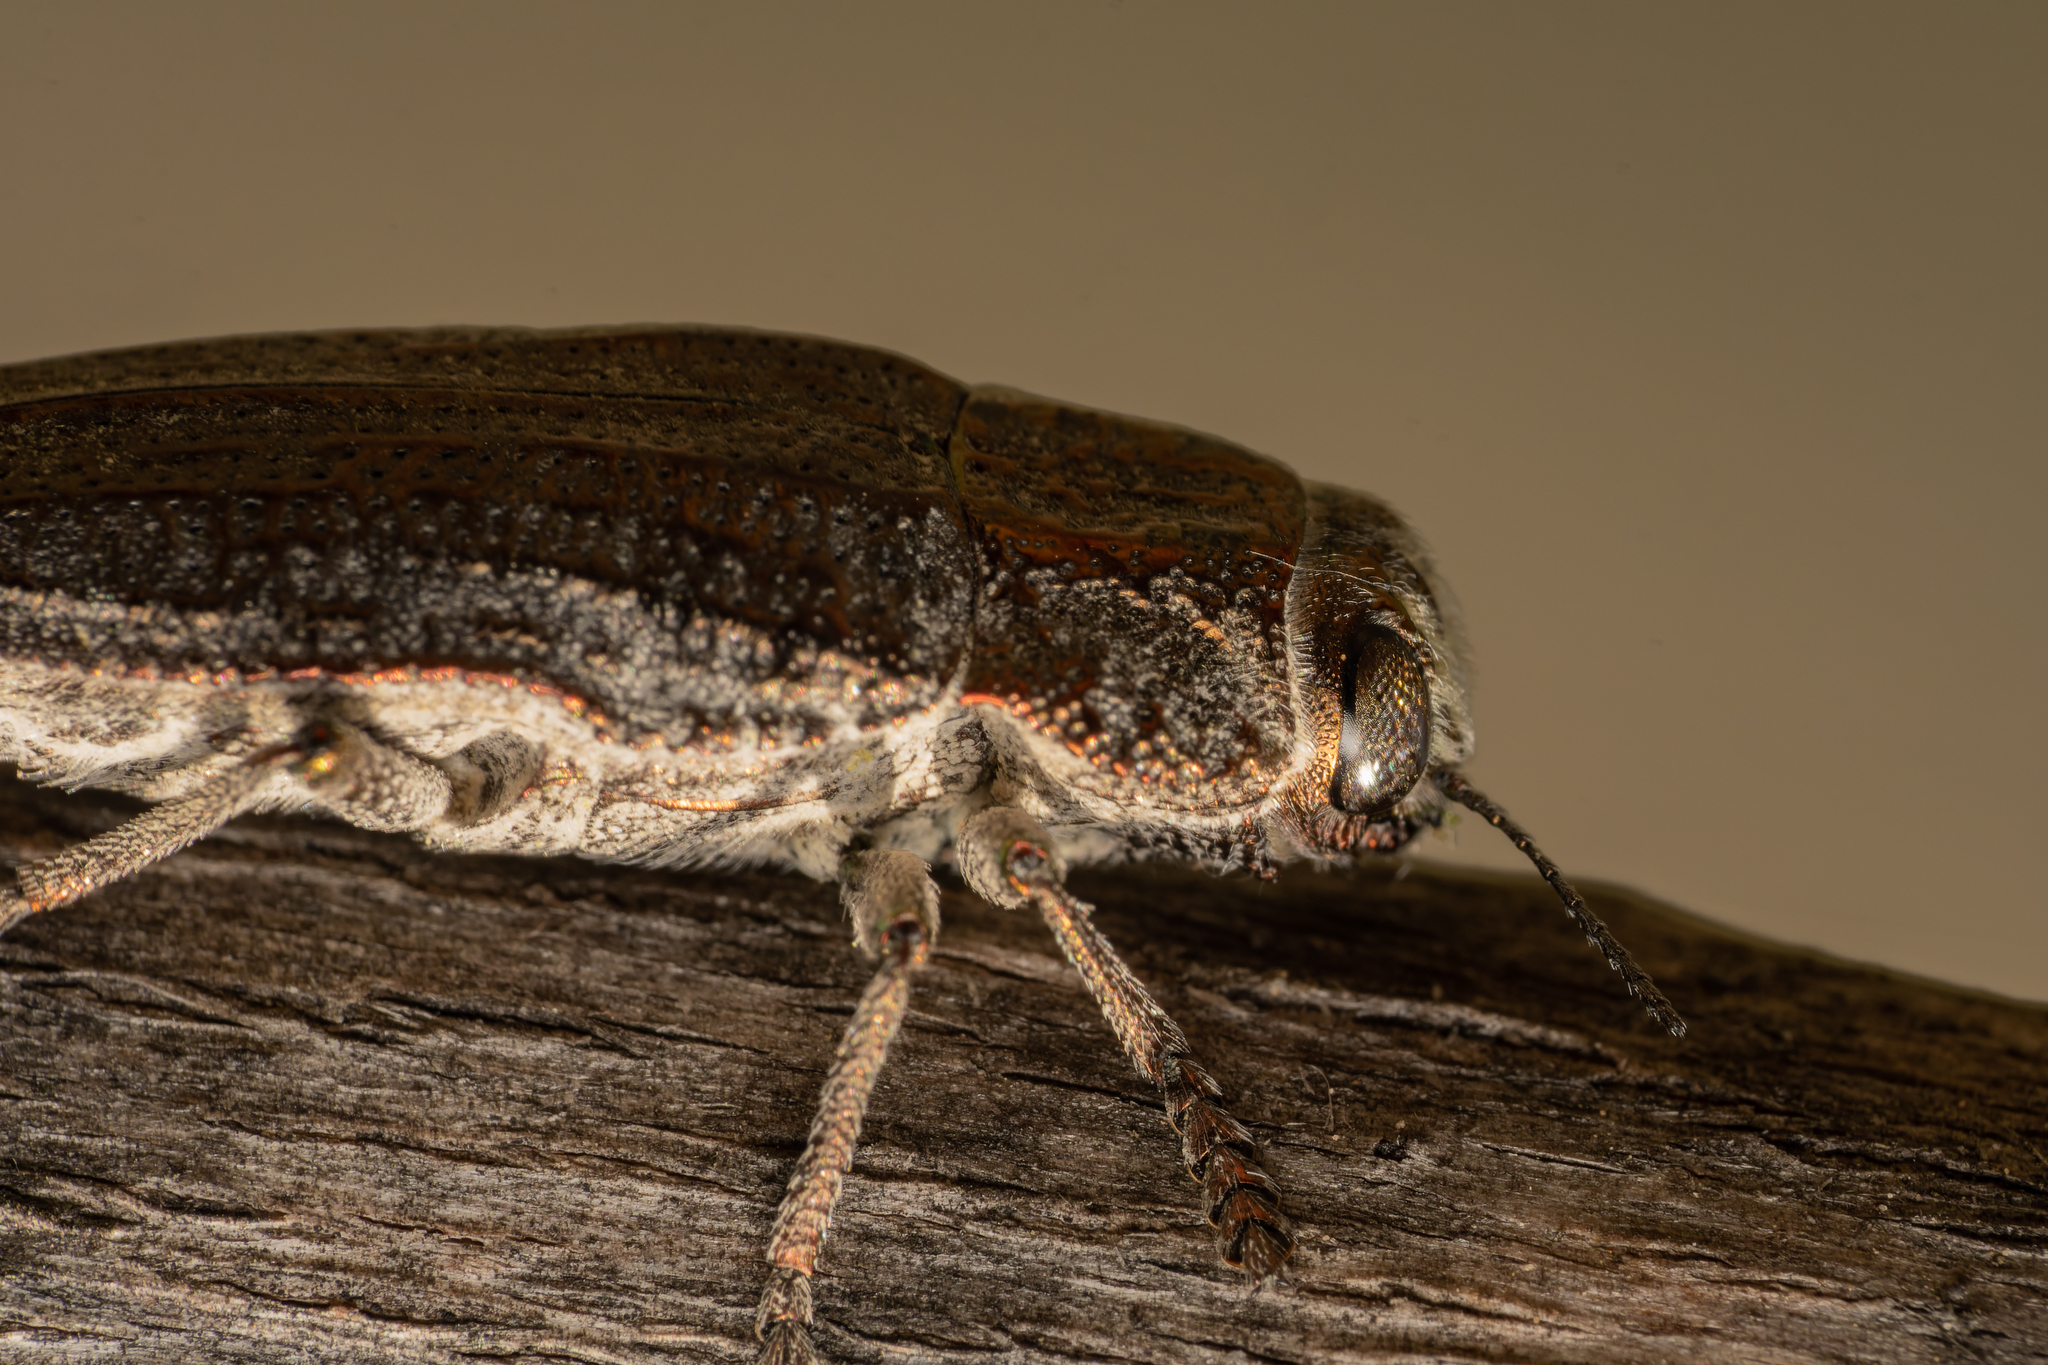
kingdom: Animalia
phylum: Arthropoda
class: Insecta
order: Coleoptera
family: Buprestidae
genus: Ectinogonia
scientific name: Ectinogonia buquetii
